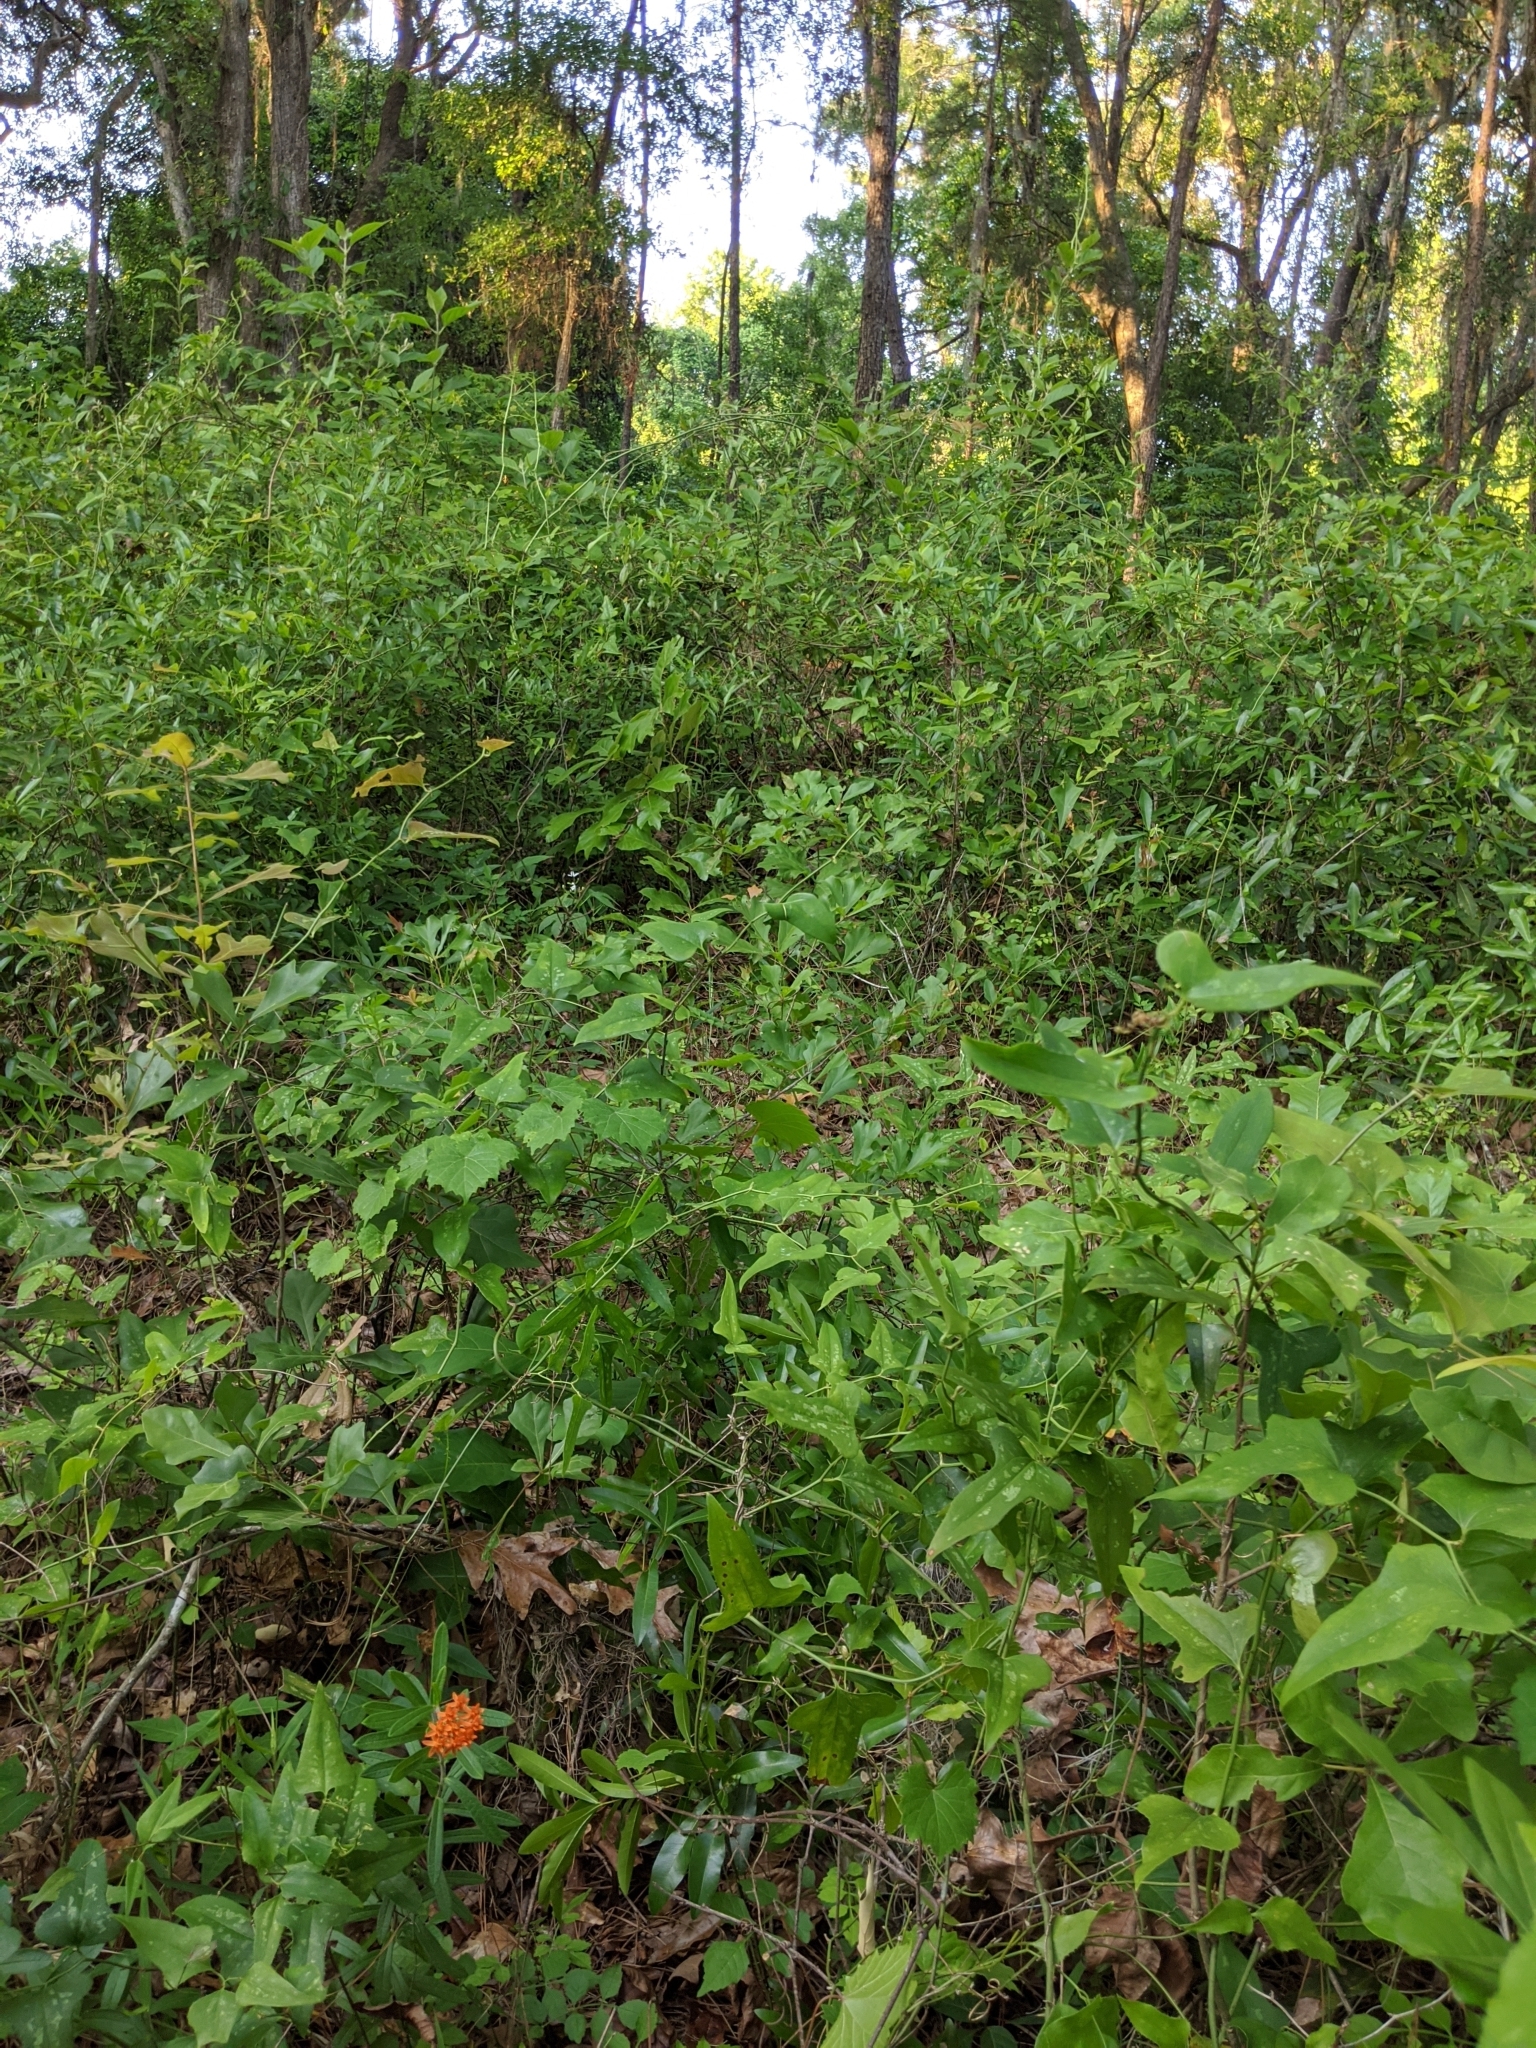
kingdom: Plantae
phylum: Tracheophyta
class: Magnoliopsida
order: Gentianales
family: Apocynaceae
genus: Asclepias
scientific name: Asclepias tuberosa
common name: Butterfly milkweed
